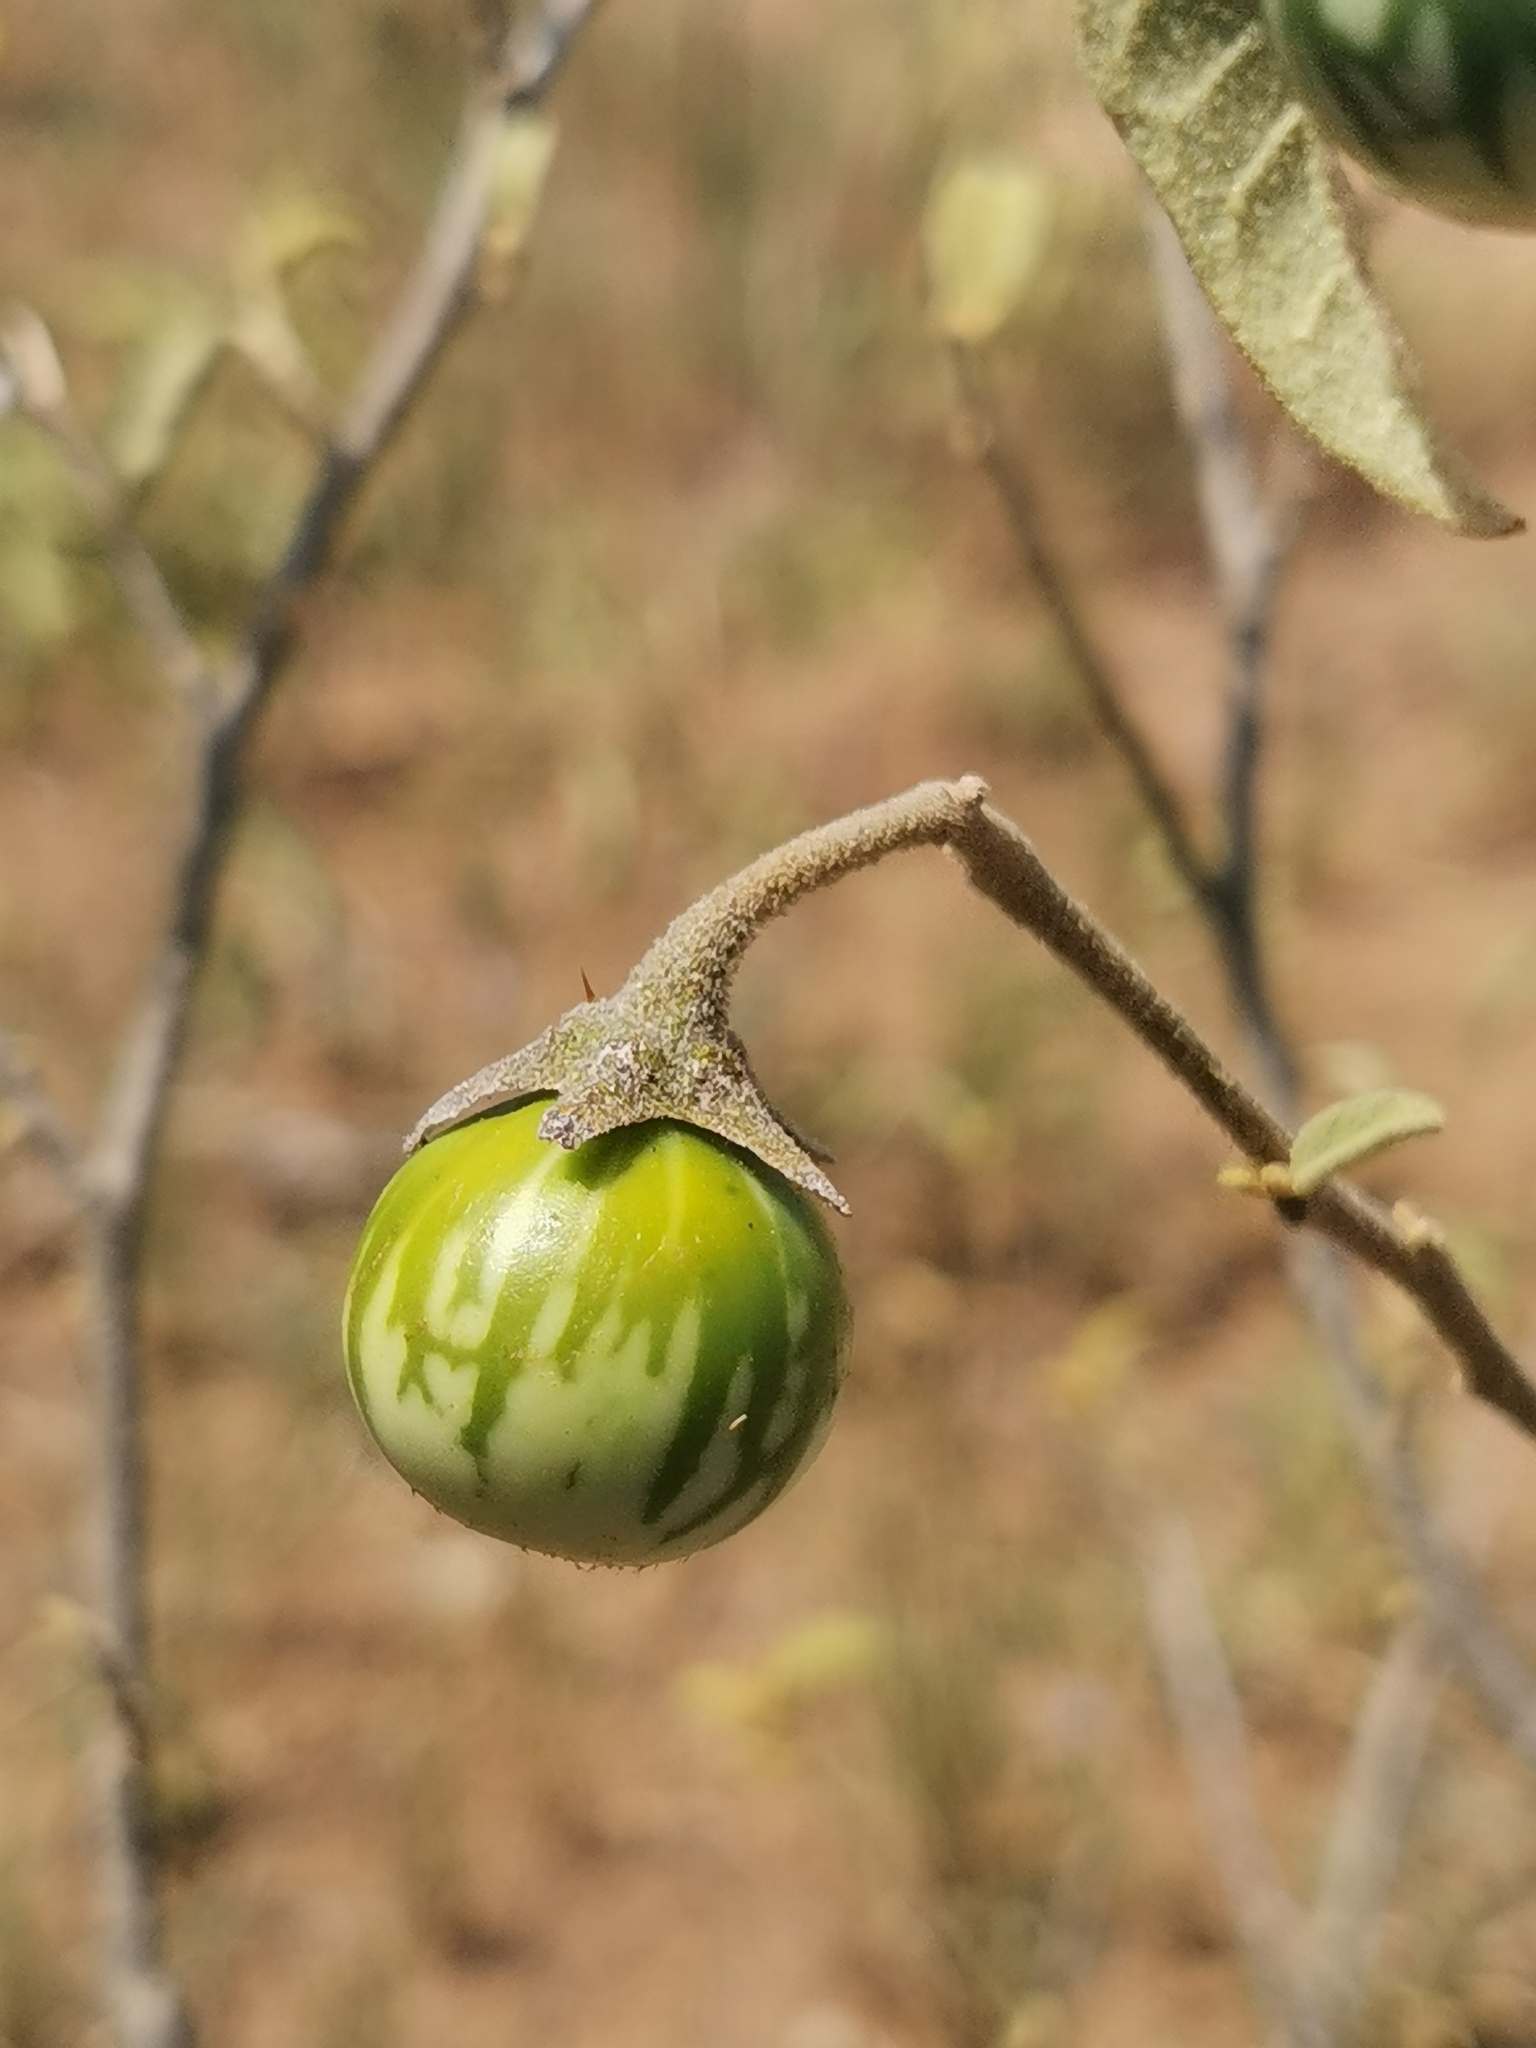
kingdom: Plantae
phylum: Tracheophyta
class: Magnoliopsida
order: Solanales
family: Solanaceae
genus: Solanum
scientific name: Solanum campylacanthum
